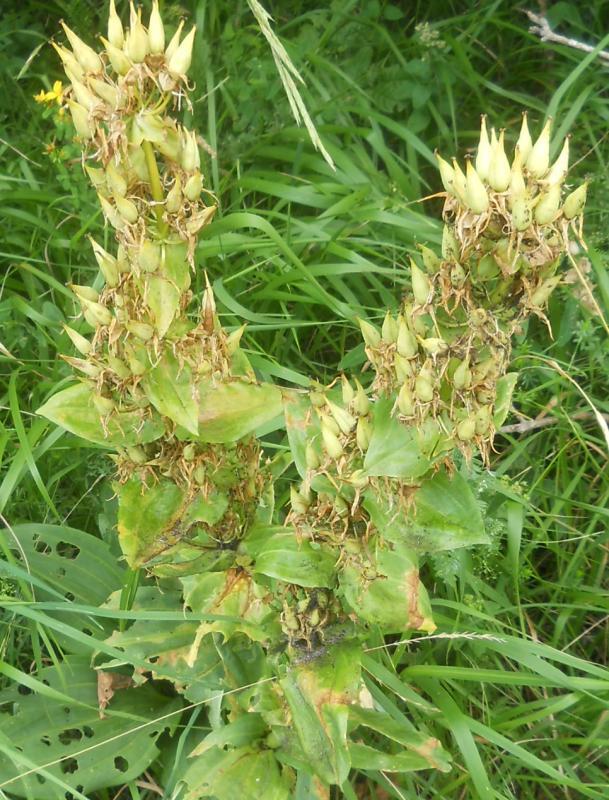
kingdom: Plantae
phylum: Tracheophyta
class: Magnoliopsida
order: Gentianales
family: Gentianaceae
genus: Gentiana
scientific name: Gentiana lutea
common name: Great yellow gentian
